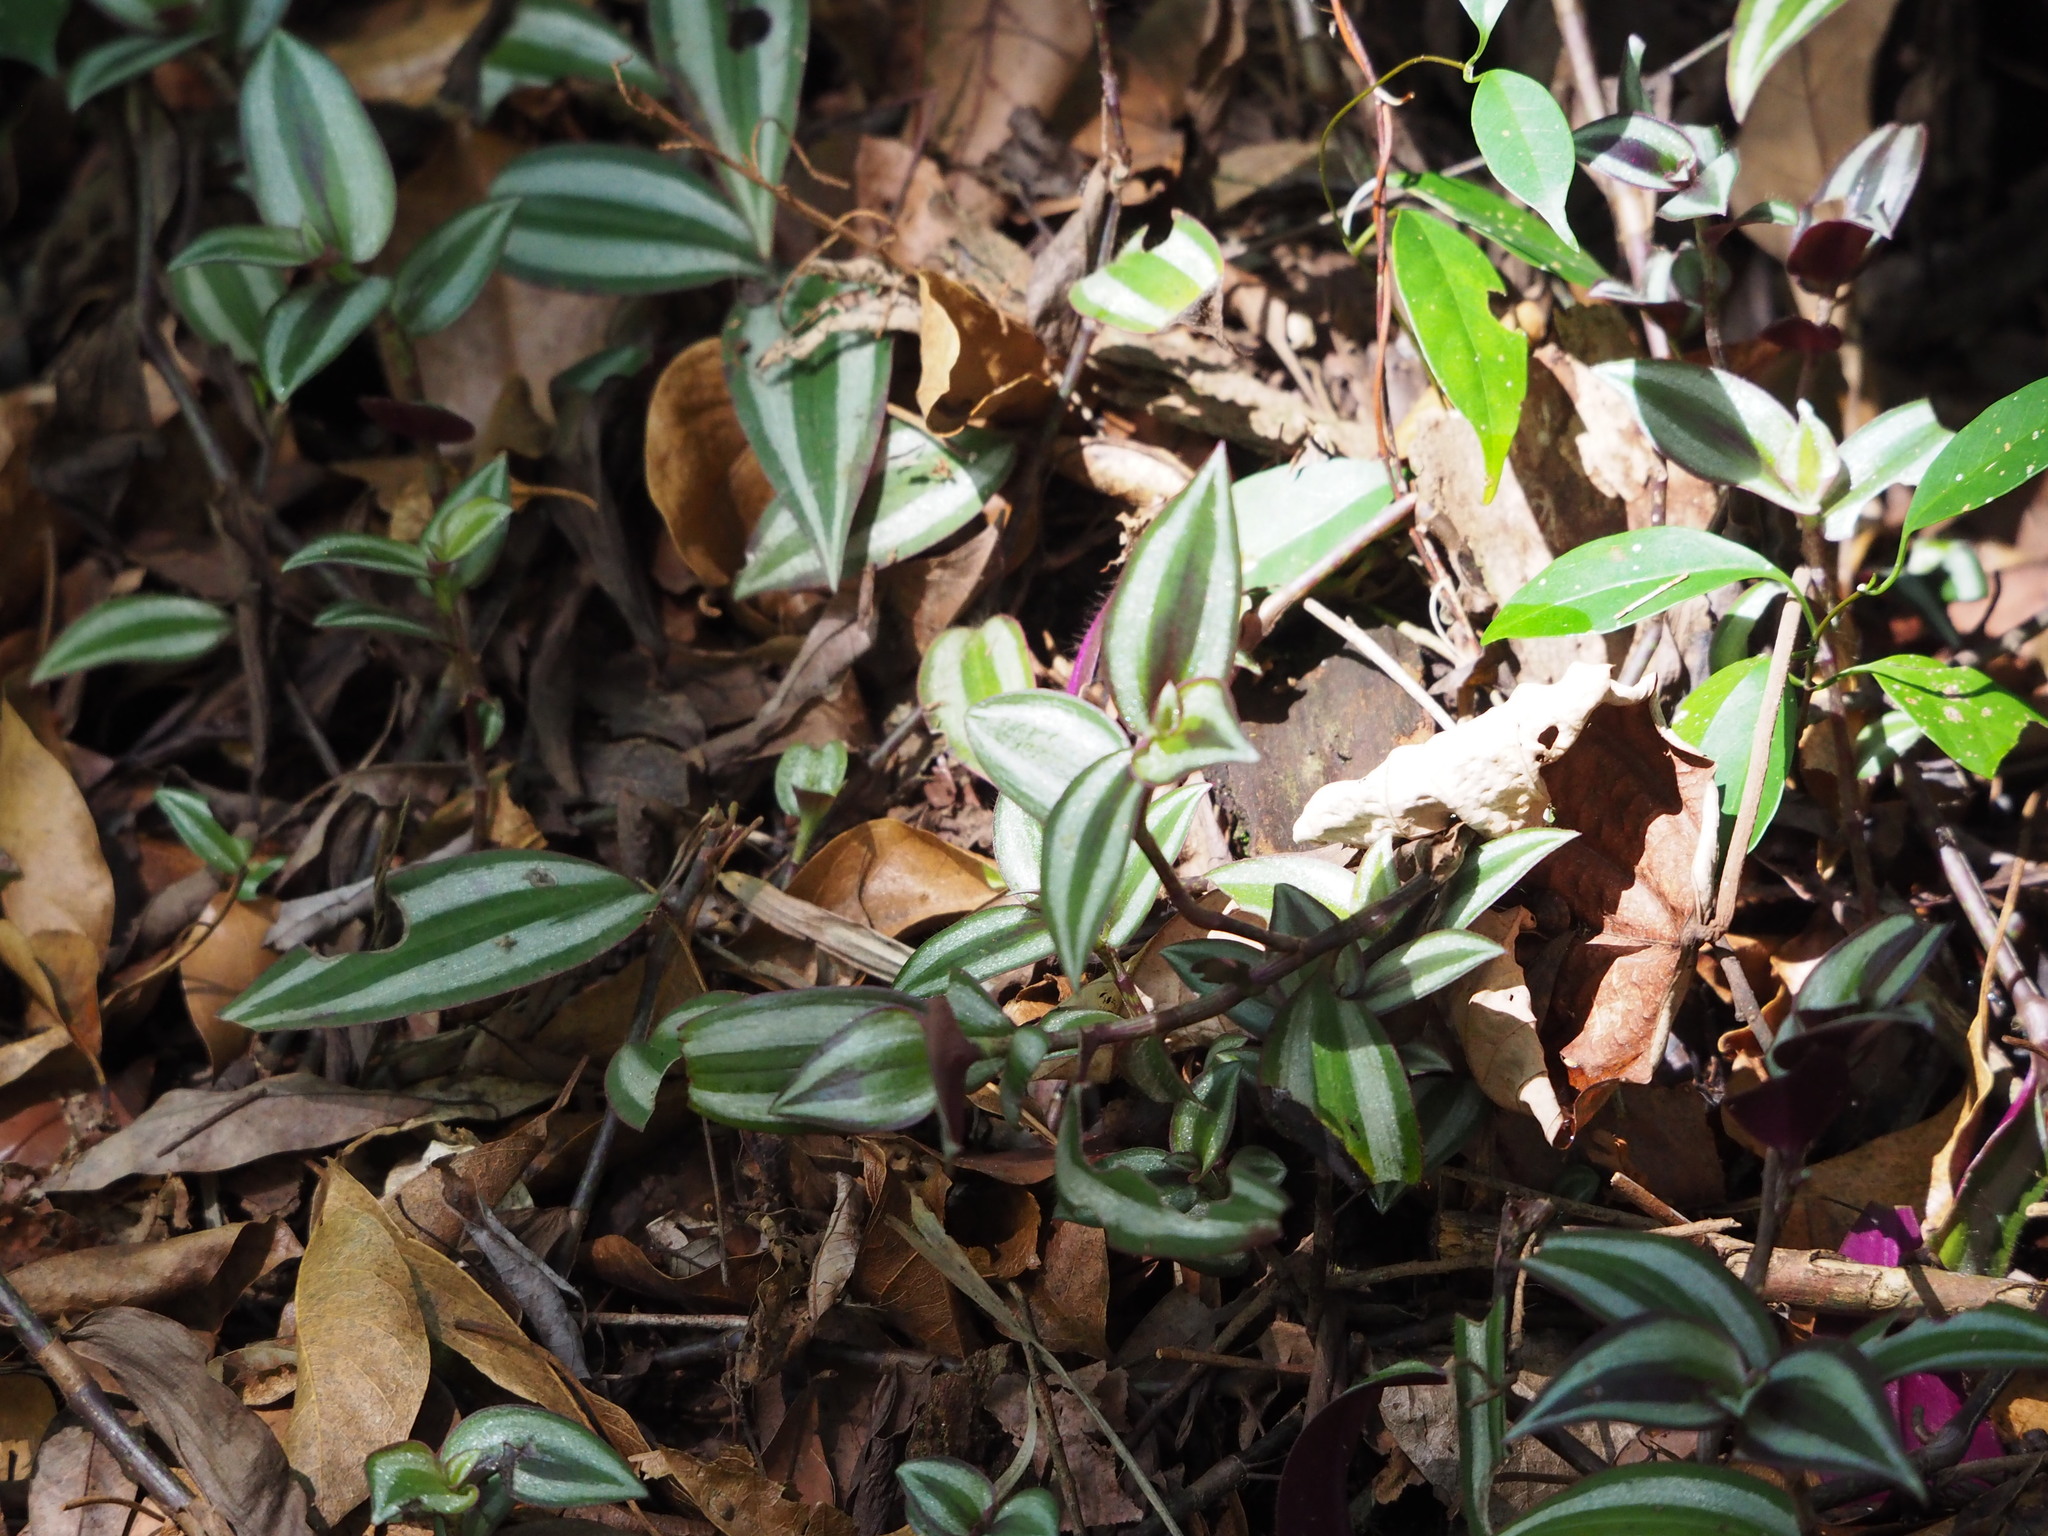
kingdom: Plantae
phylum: Tracheophyta
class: Liliopsida
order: Commelinales
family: Commelinaceae
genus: Tradescantia
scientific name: Tradescantia zebrina
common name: Inchplant
